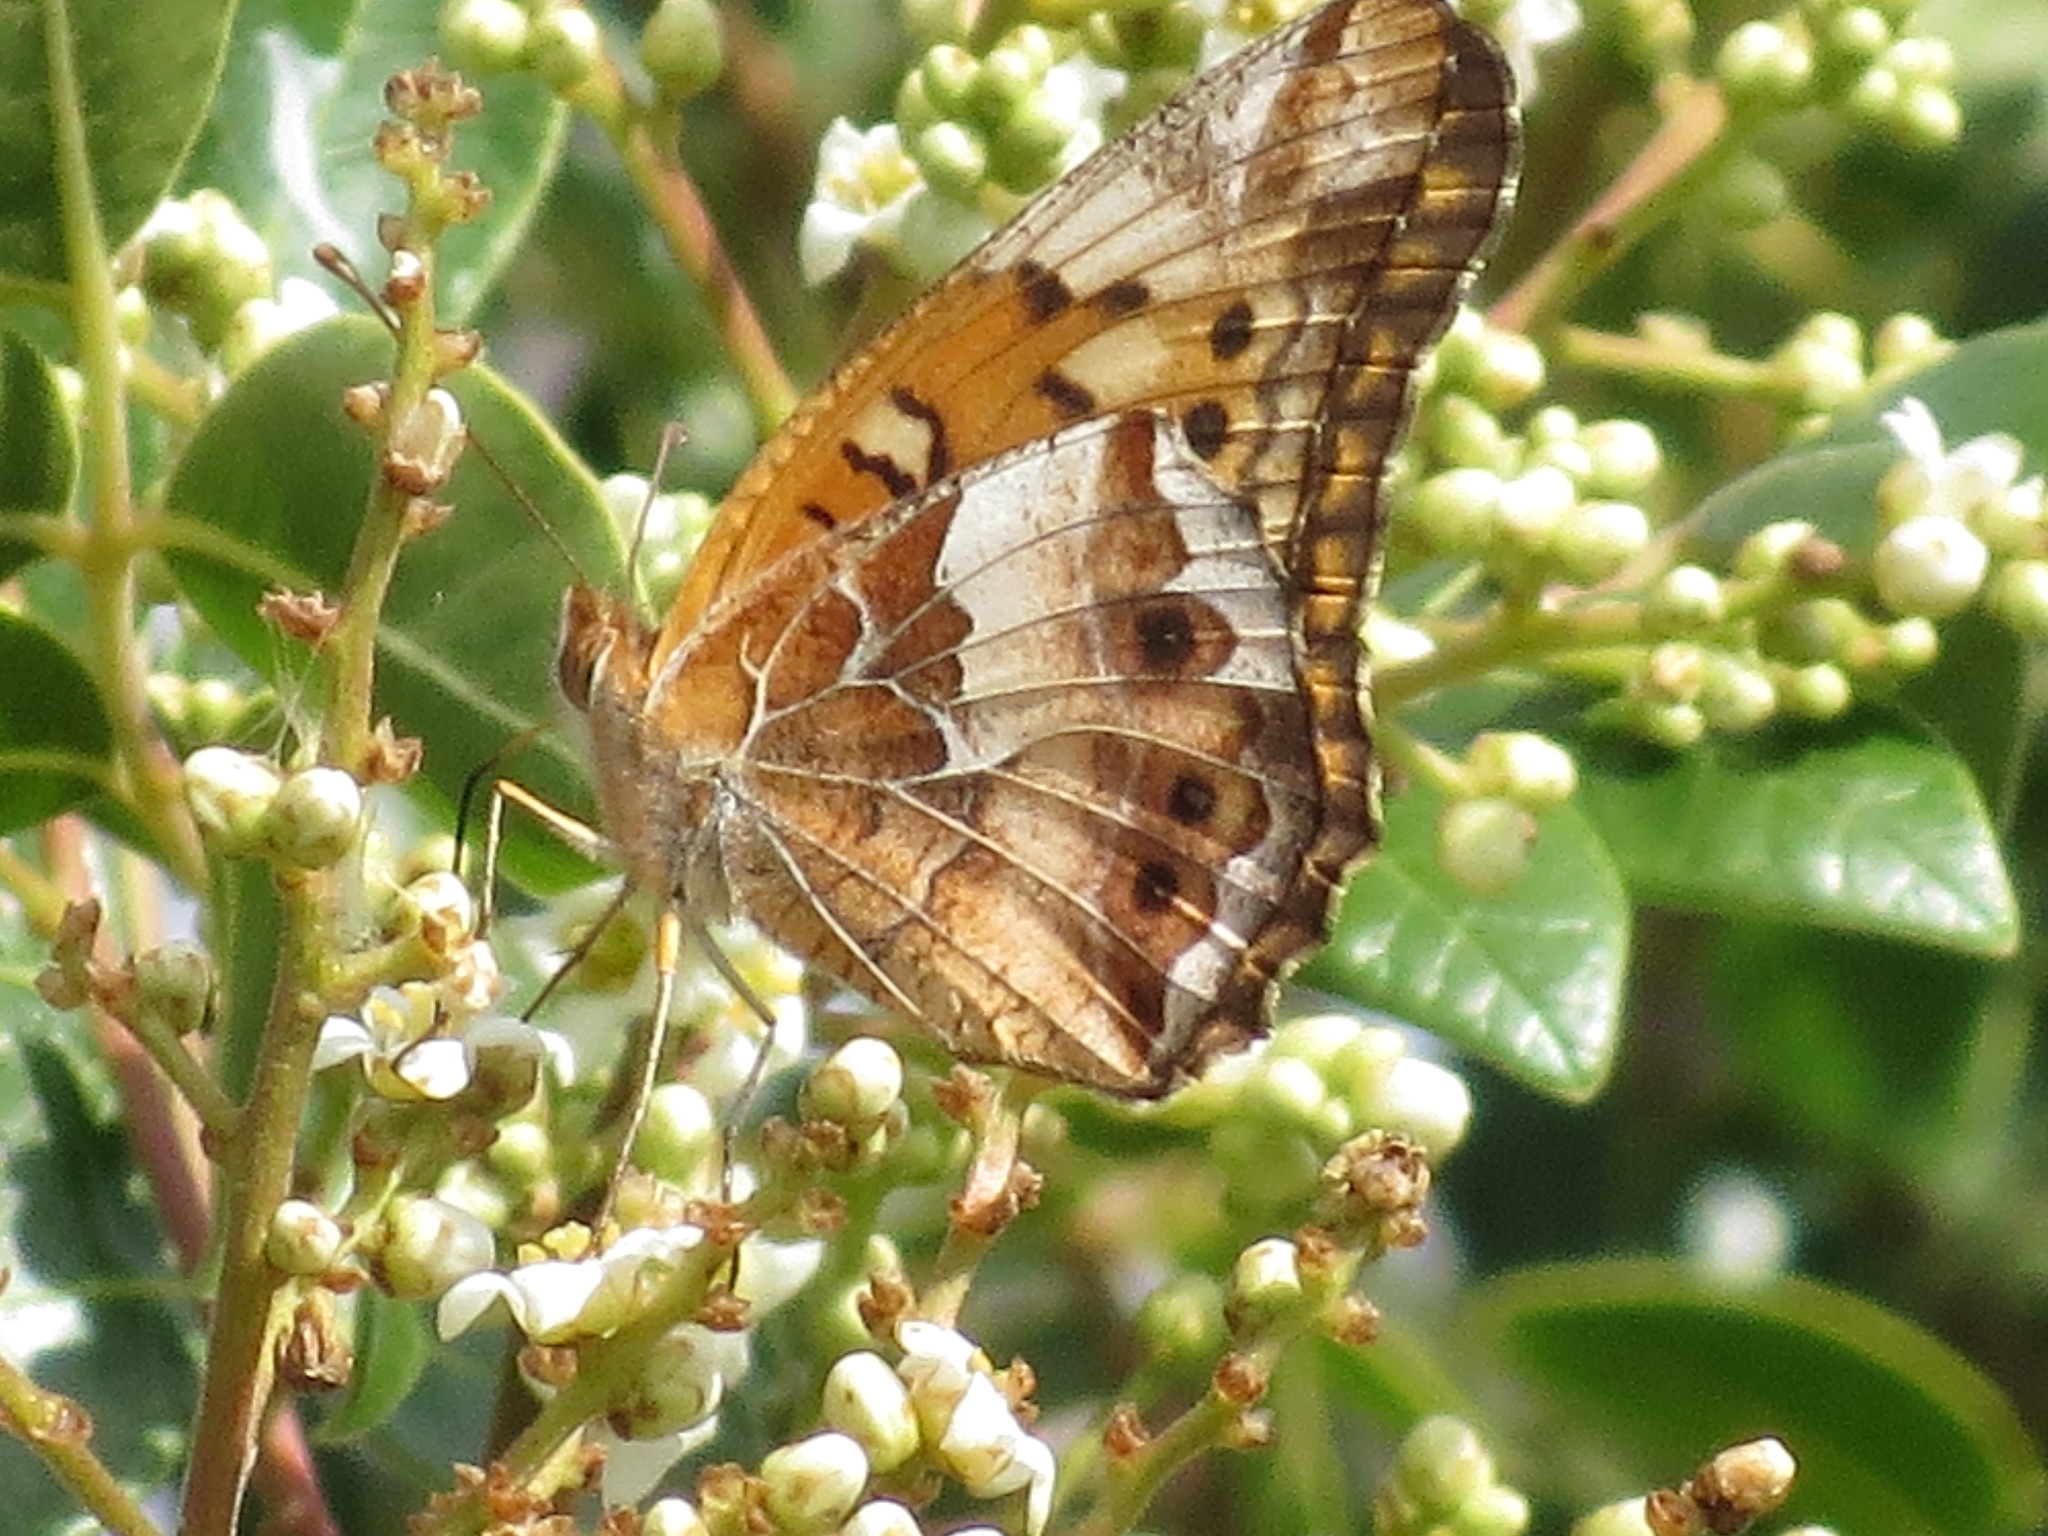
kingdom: Animalia
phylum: Arthropoda
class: Insecta
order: Lepidoptera
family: Nymphalidae
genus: Euptoieta
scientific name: Euptoieta claudia
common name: Variegated fritillary
